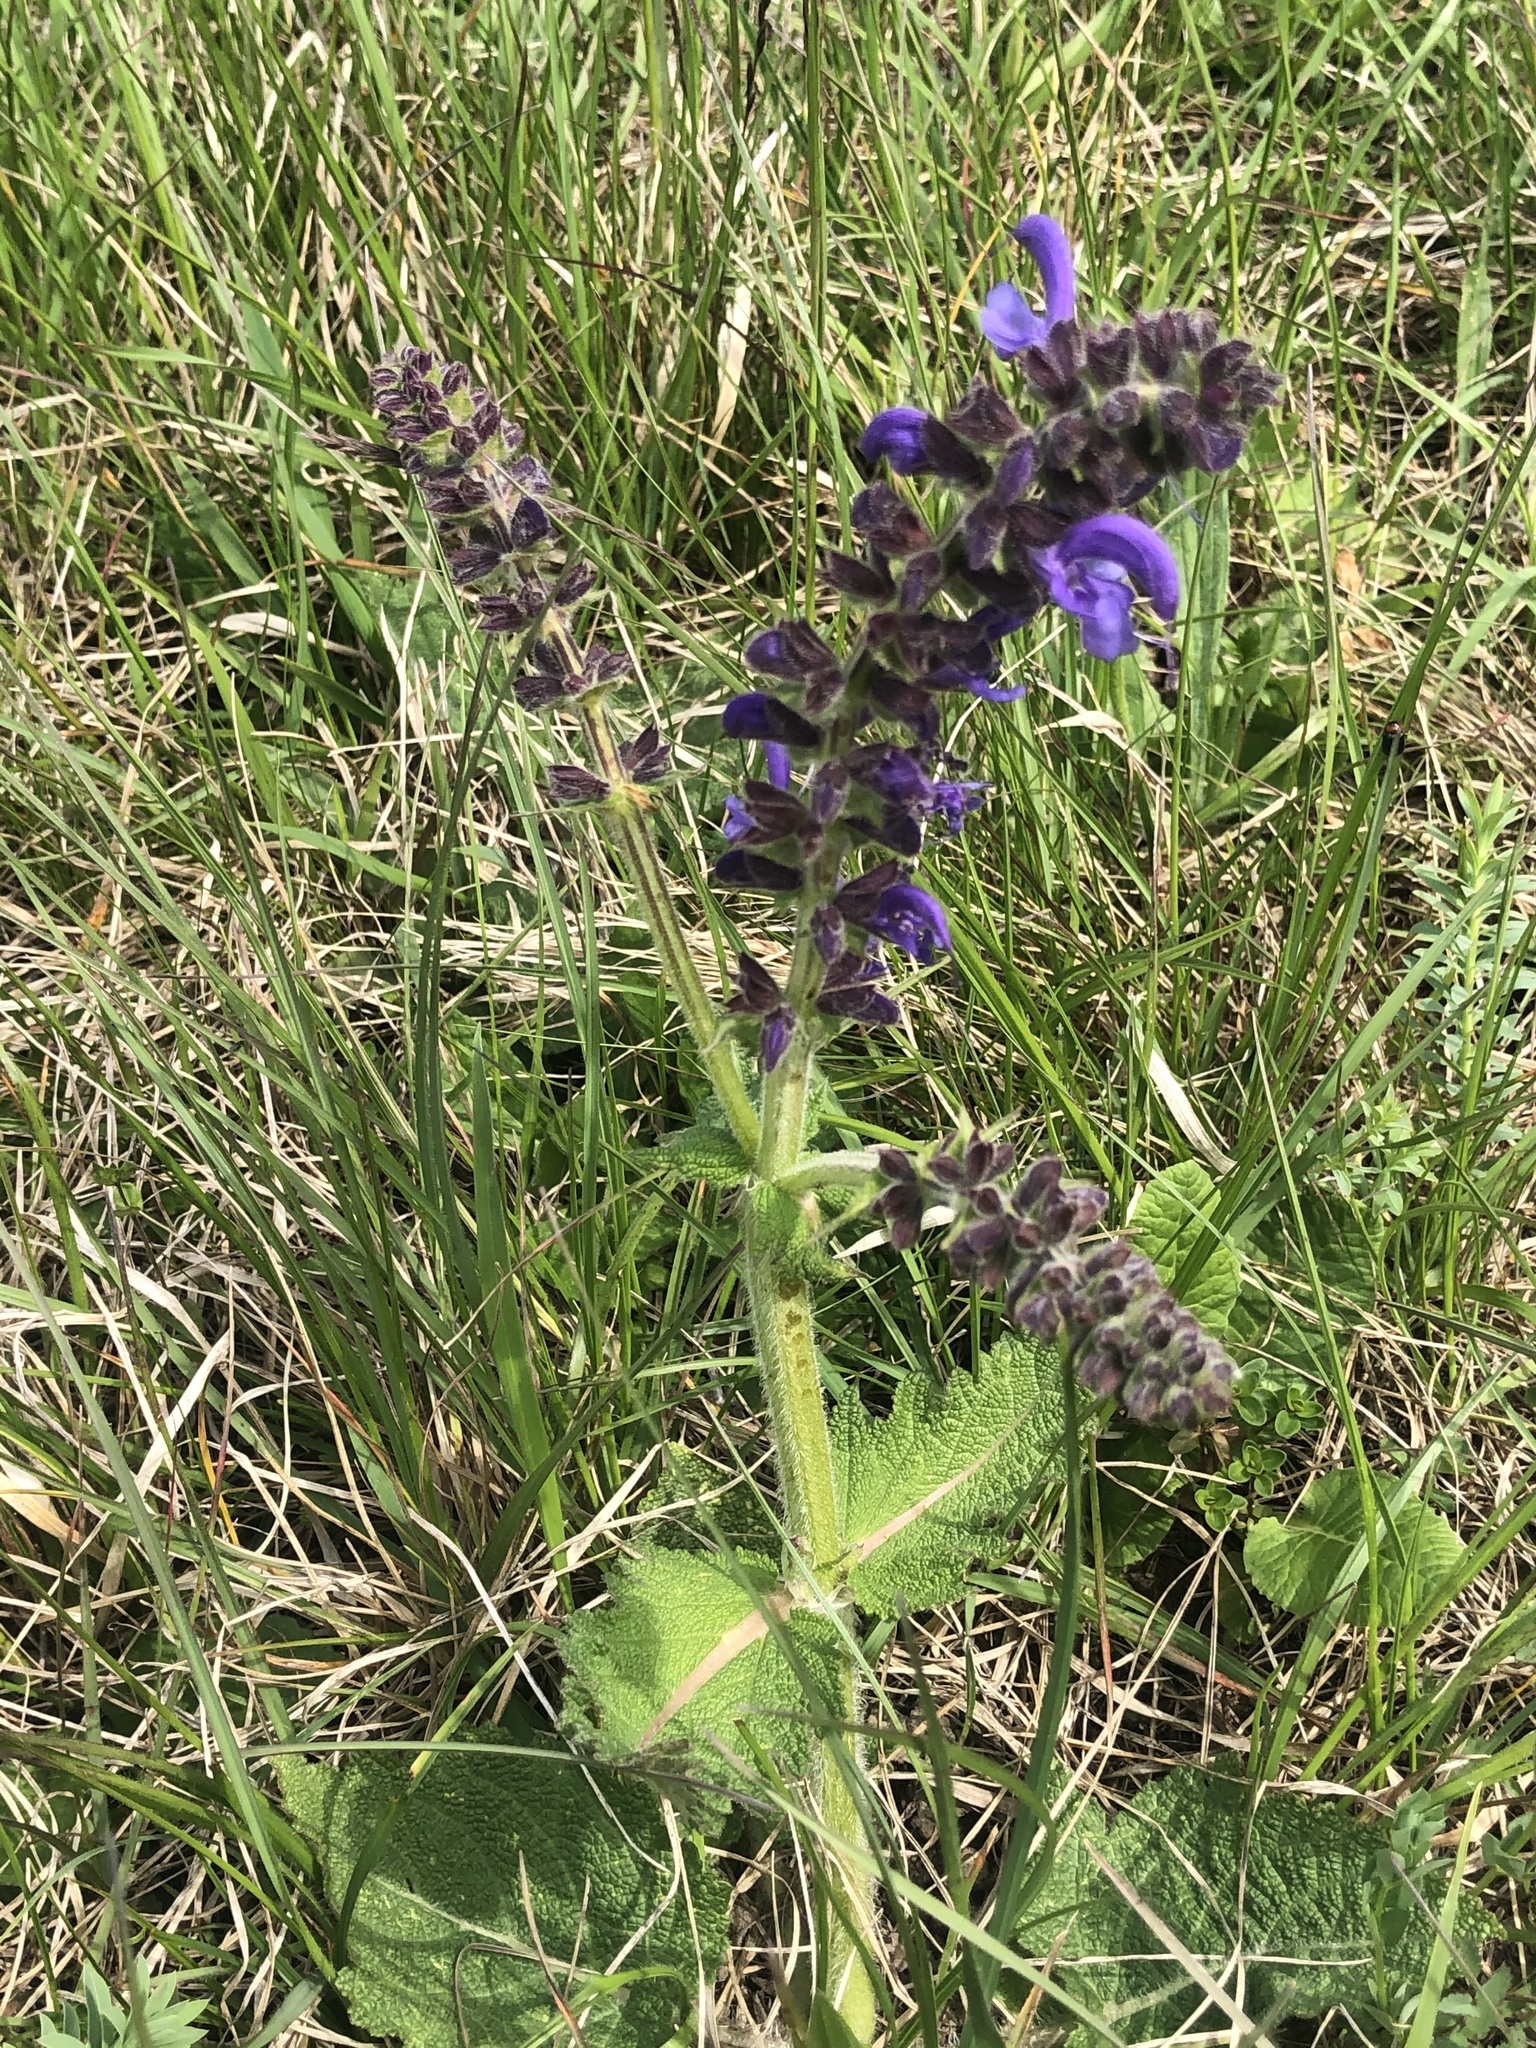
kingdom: Plantae
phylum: Tracheophyta
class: Magnoliopsida
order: Lamiales
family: Lamiaceae
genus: Salvia
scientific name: Salvia pratensis
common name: Meadow sage
